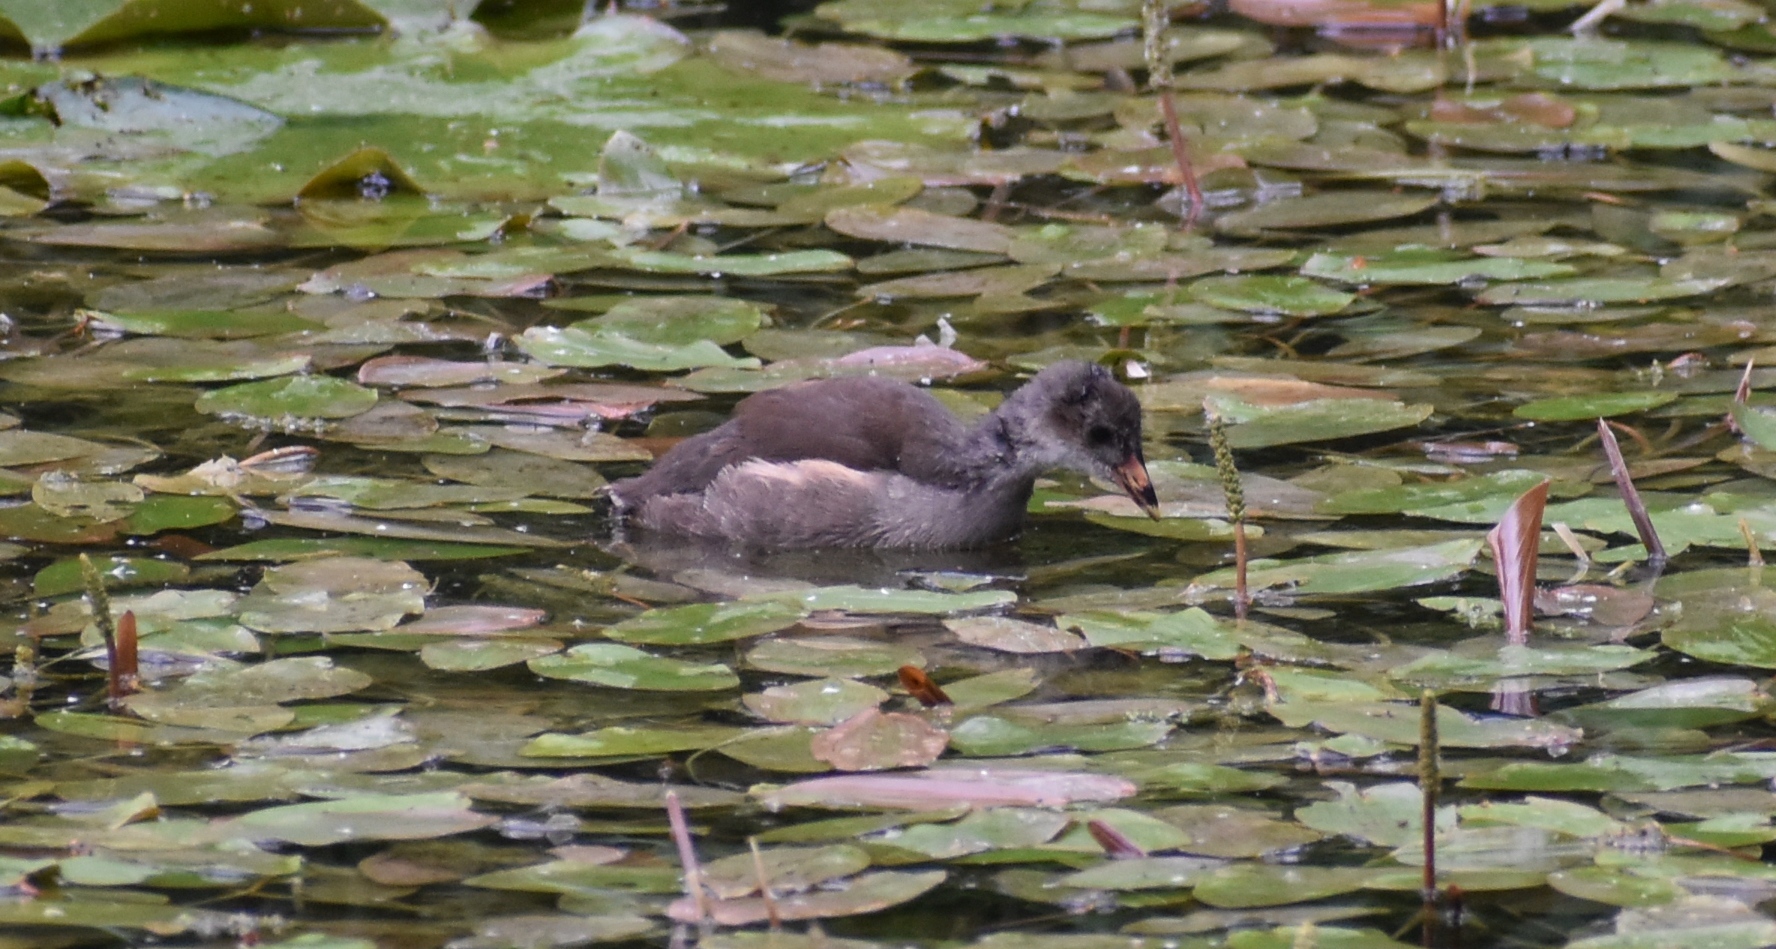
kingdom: Animalia
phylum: Chordata
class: Aves
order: Gruiformes
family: Rallidae
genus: Gallinula
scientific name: Gallinula chloropus
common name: Common moorhen
